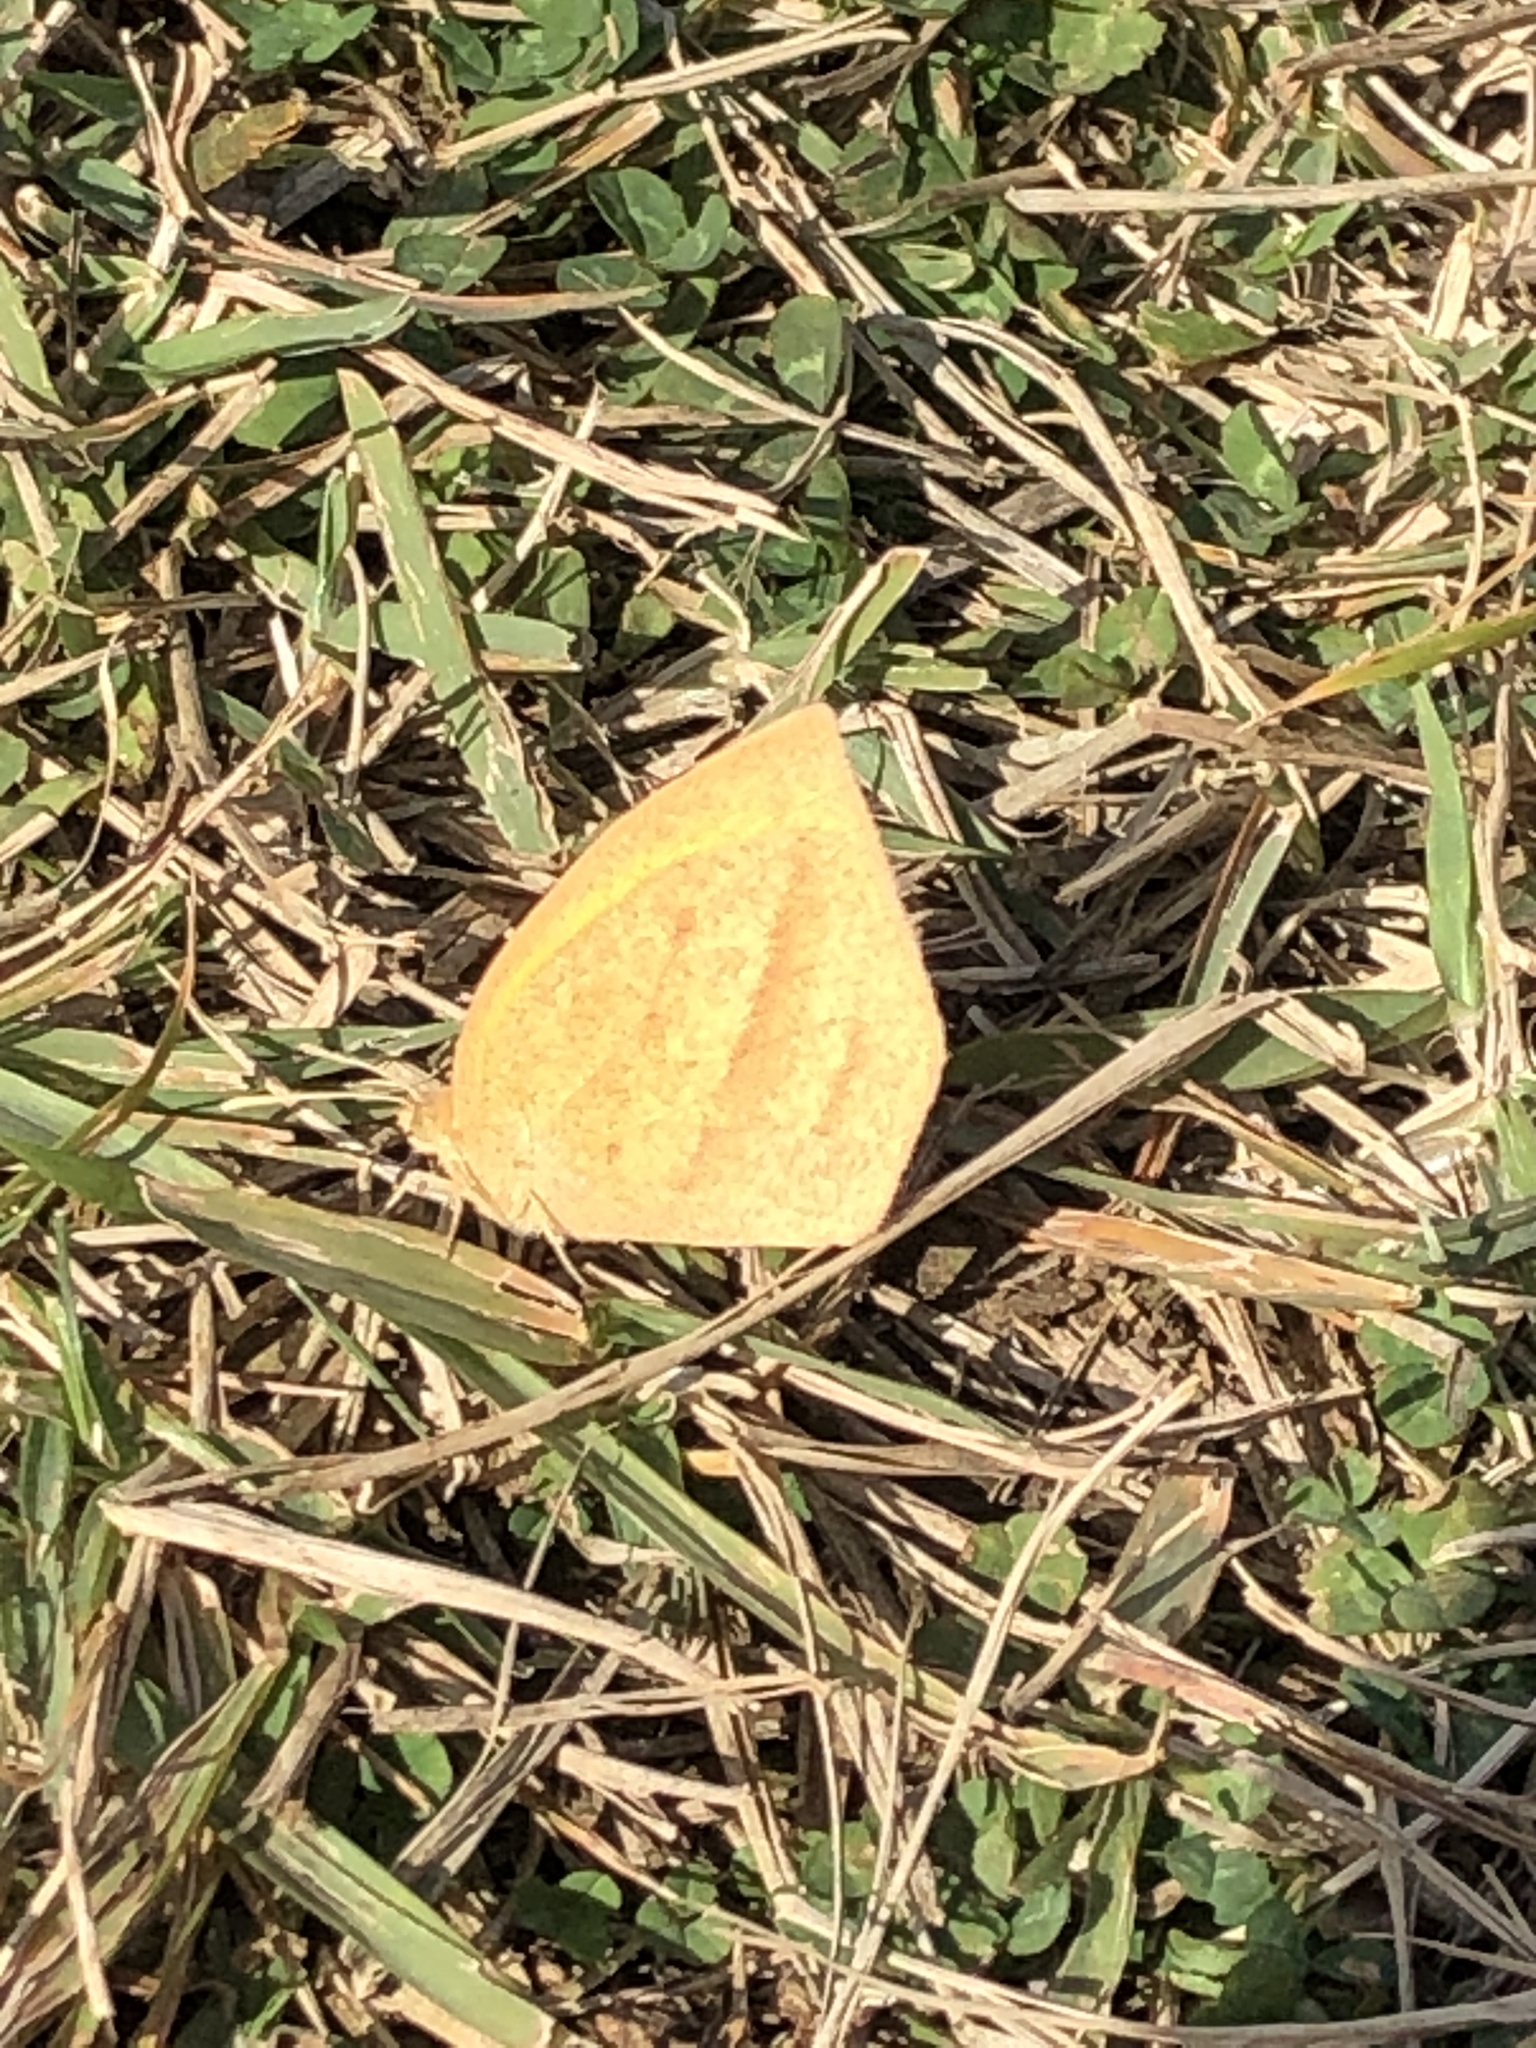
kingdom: Animalia
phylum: Arthropoda
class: Insecta
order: Lepidoptera
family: Pieridae
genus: Eurema
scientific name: Eurema laeta
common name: Spotless grass yellow
